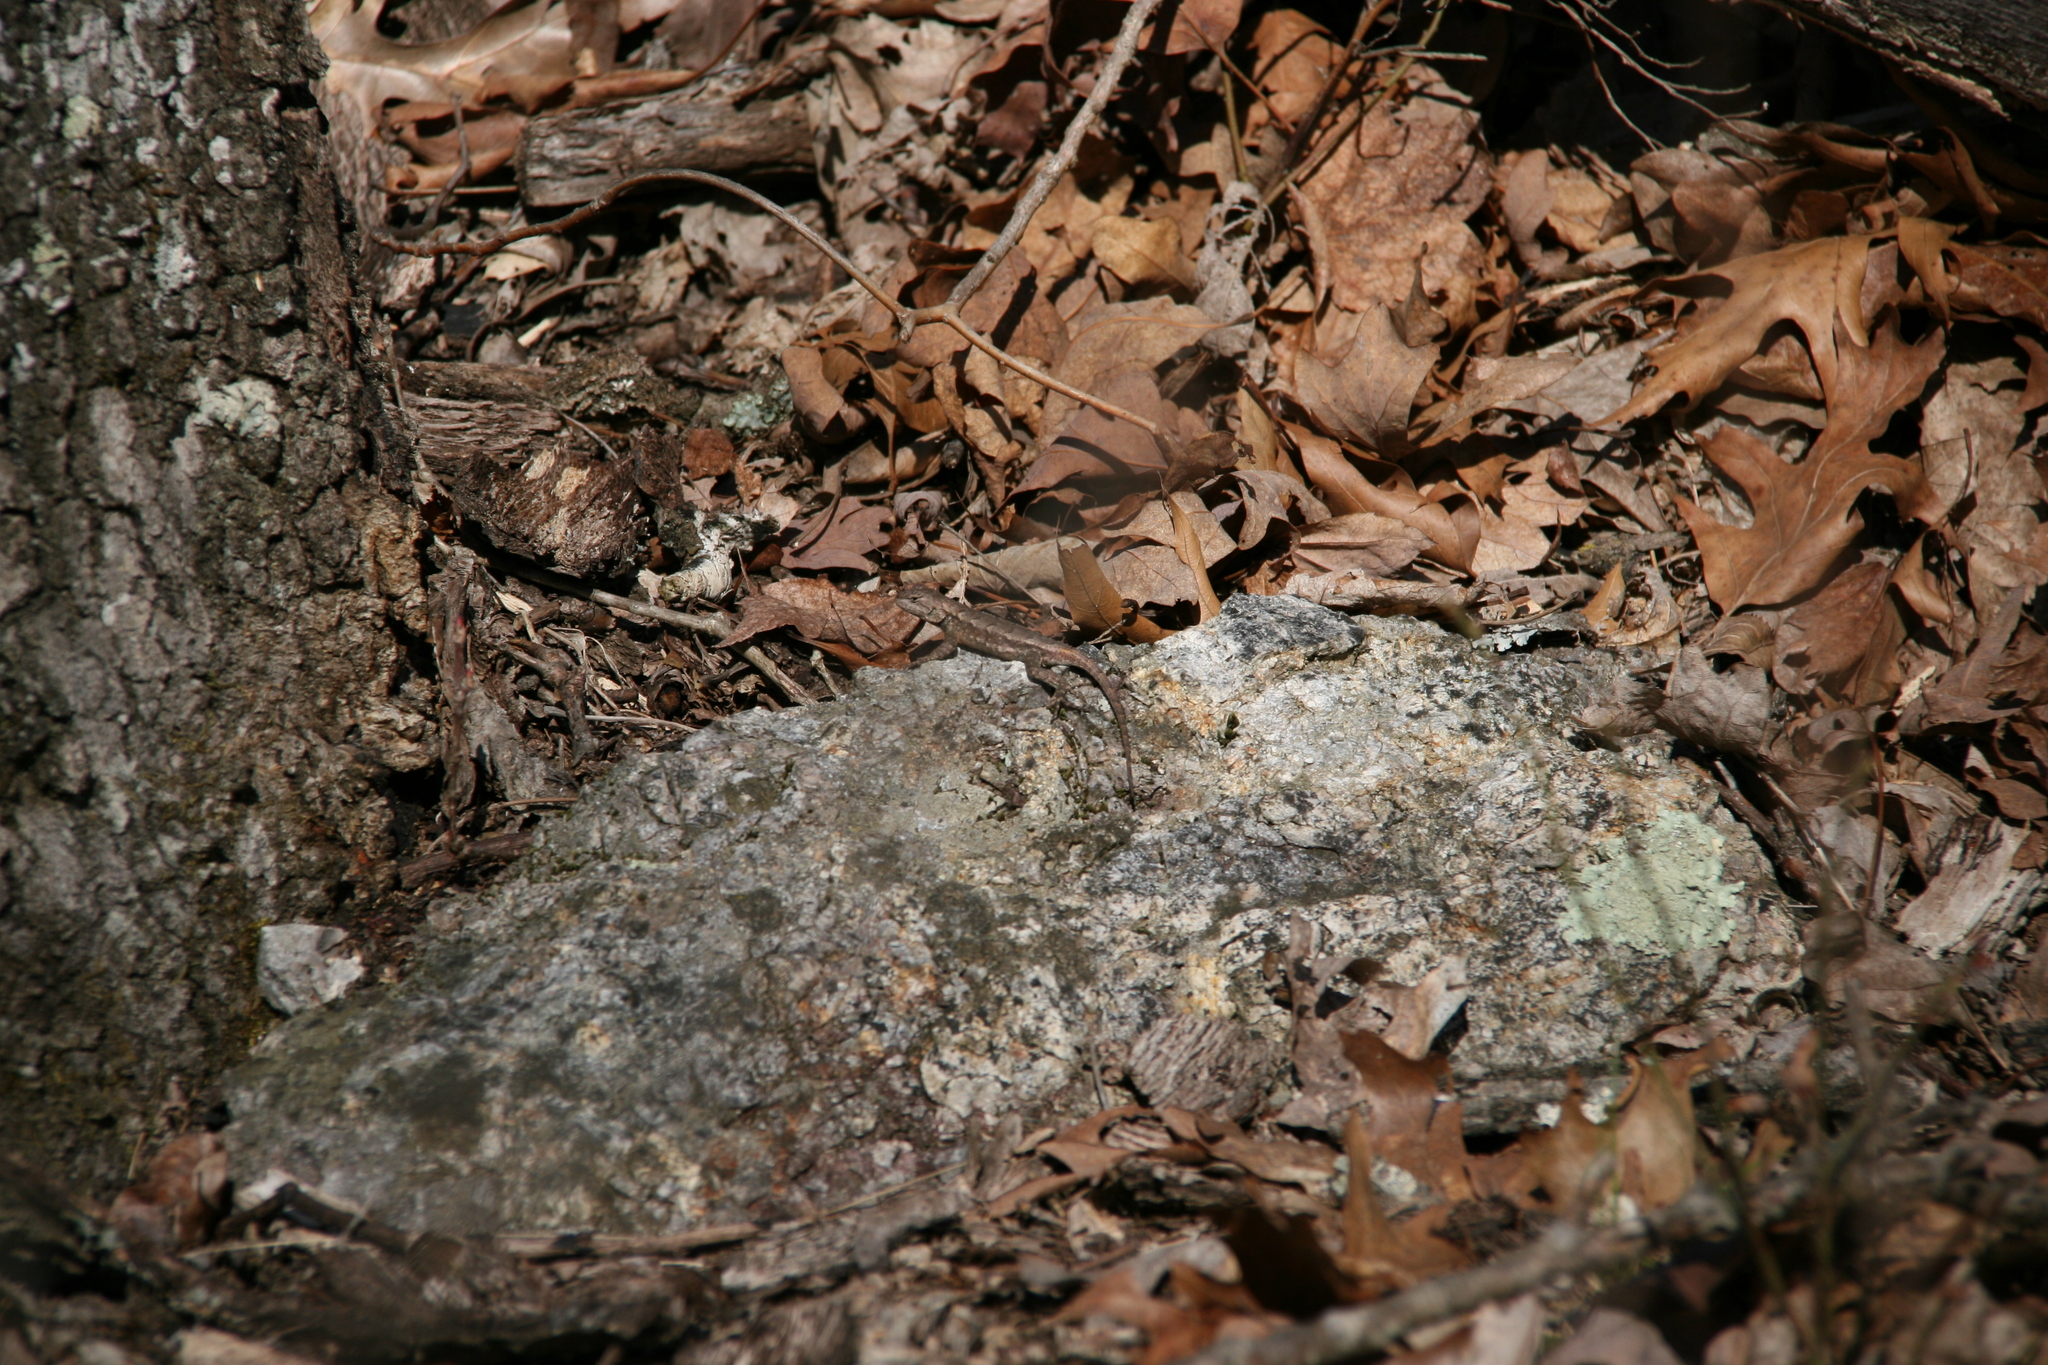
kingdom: Animalia
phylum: Chordata
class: Squamata
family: Phrynosomatidae
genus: Sceloporus
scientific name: Sceloporus consobrinus
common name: Southern prairie lizard
